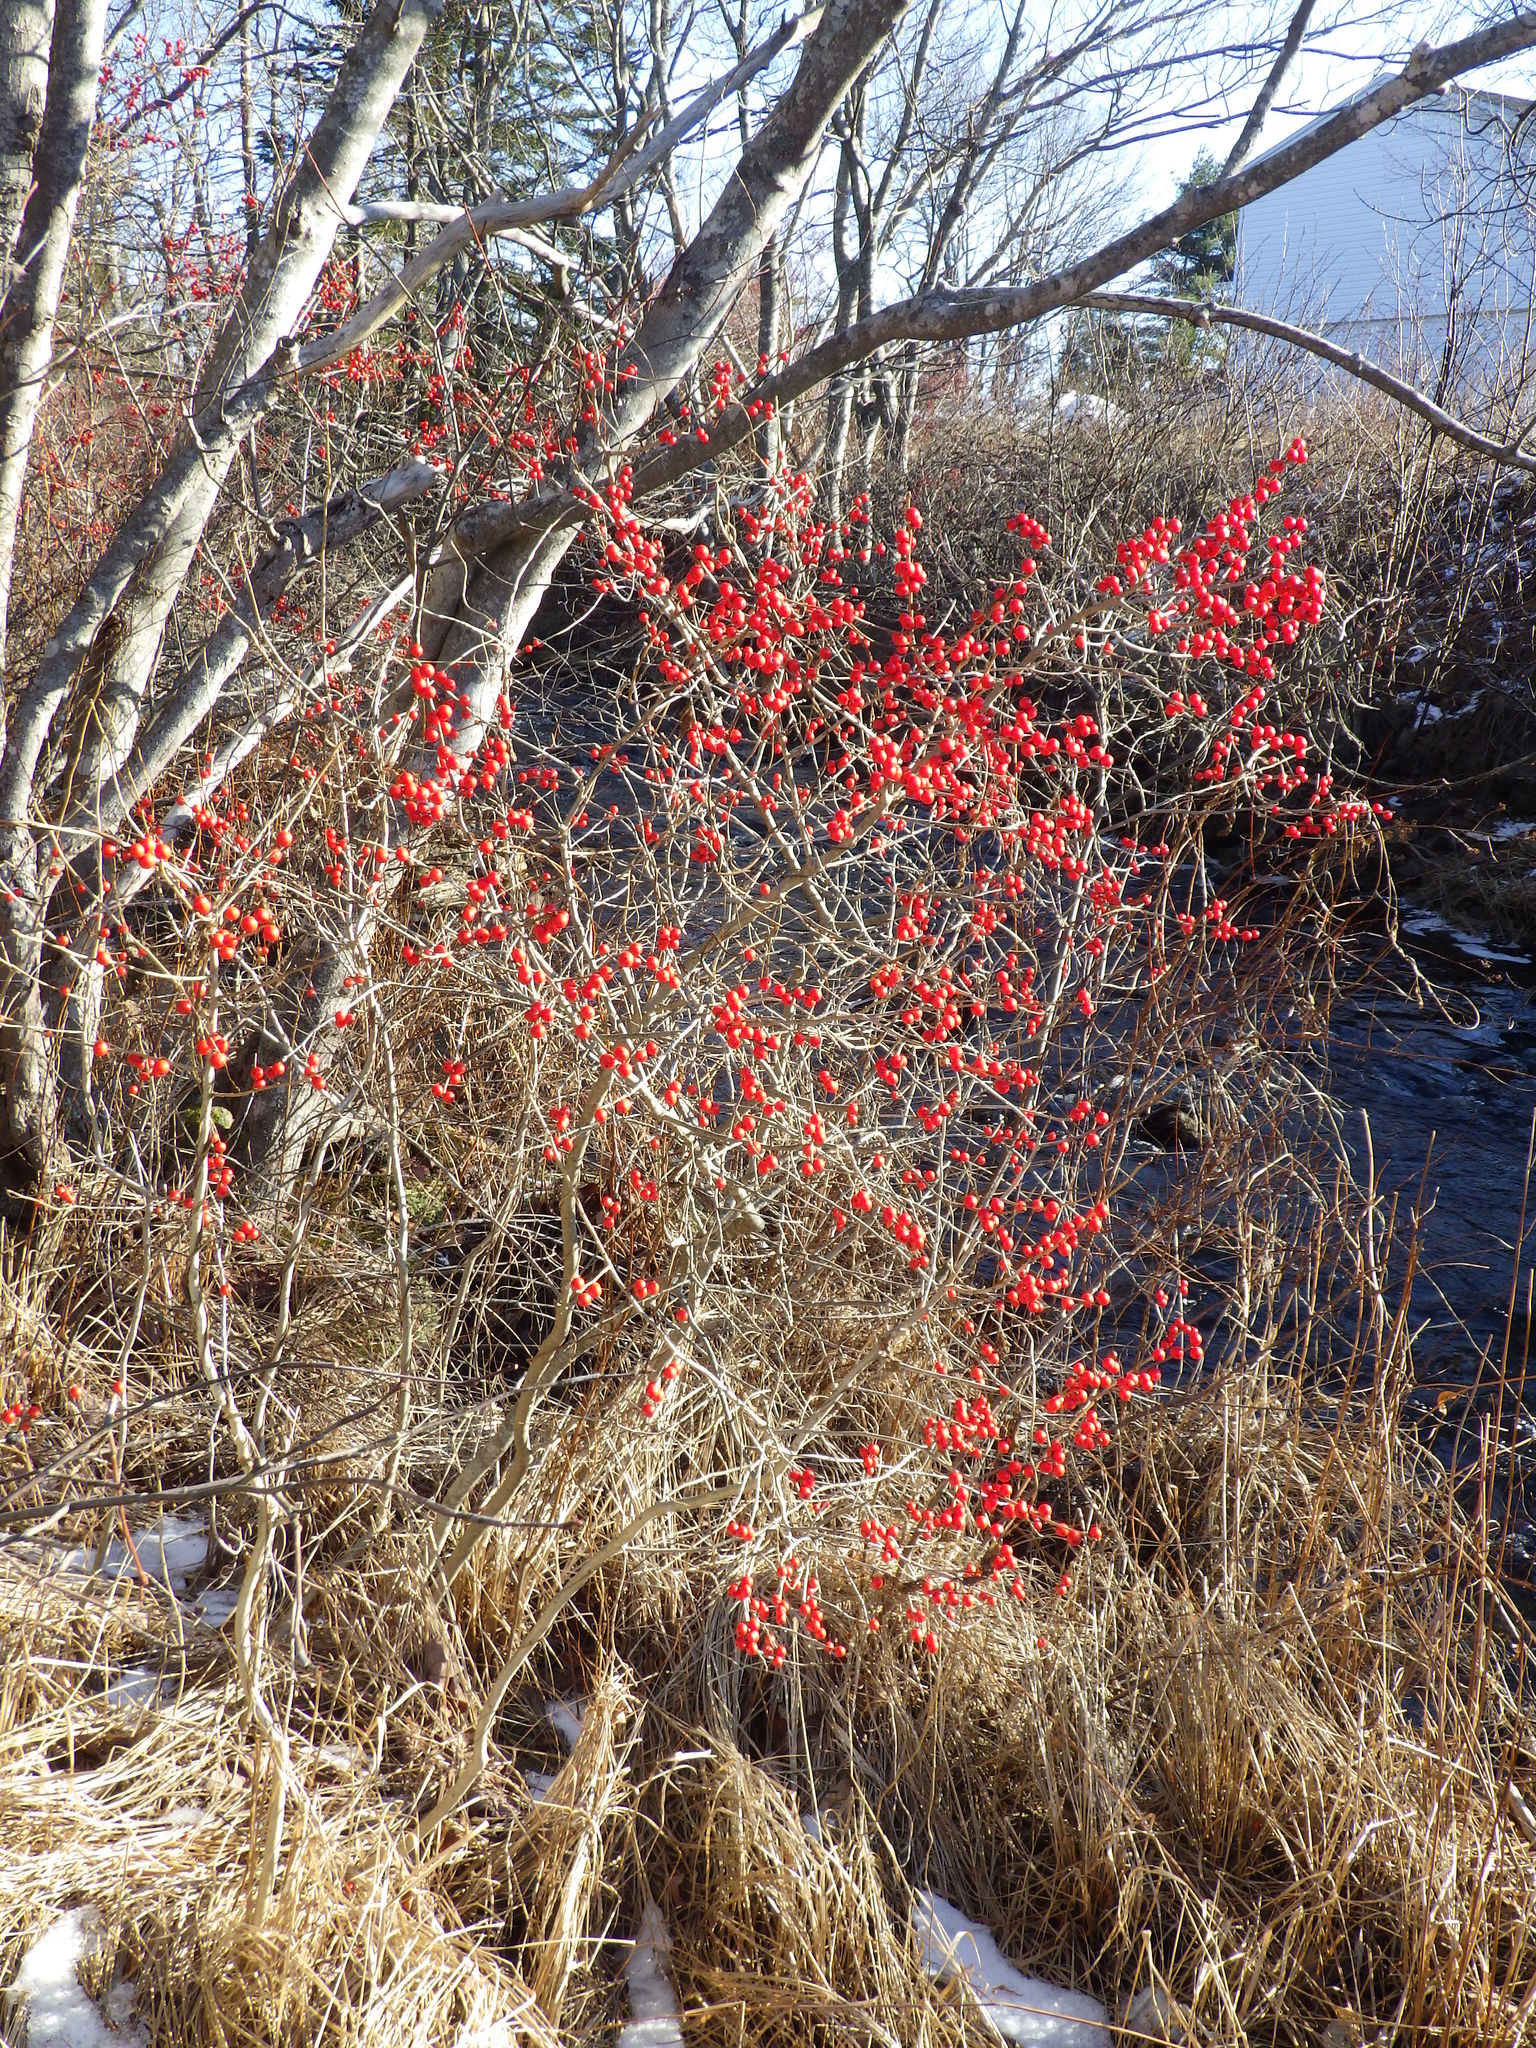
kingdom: Plantae
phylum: Tracheophyta
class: Magnoliopsida
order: Aquifoliales
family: Aquifoliaceae
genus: Ilex
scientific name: Ilex verticillata
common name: Virginia winterberry
